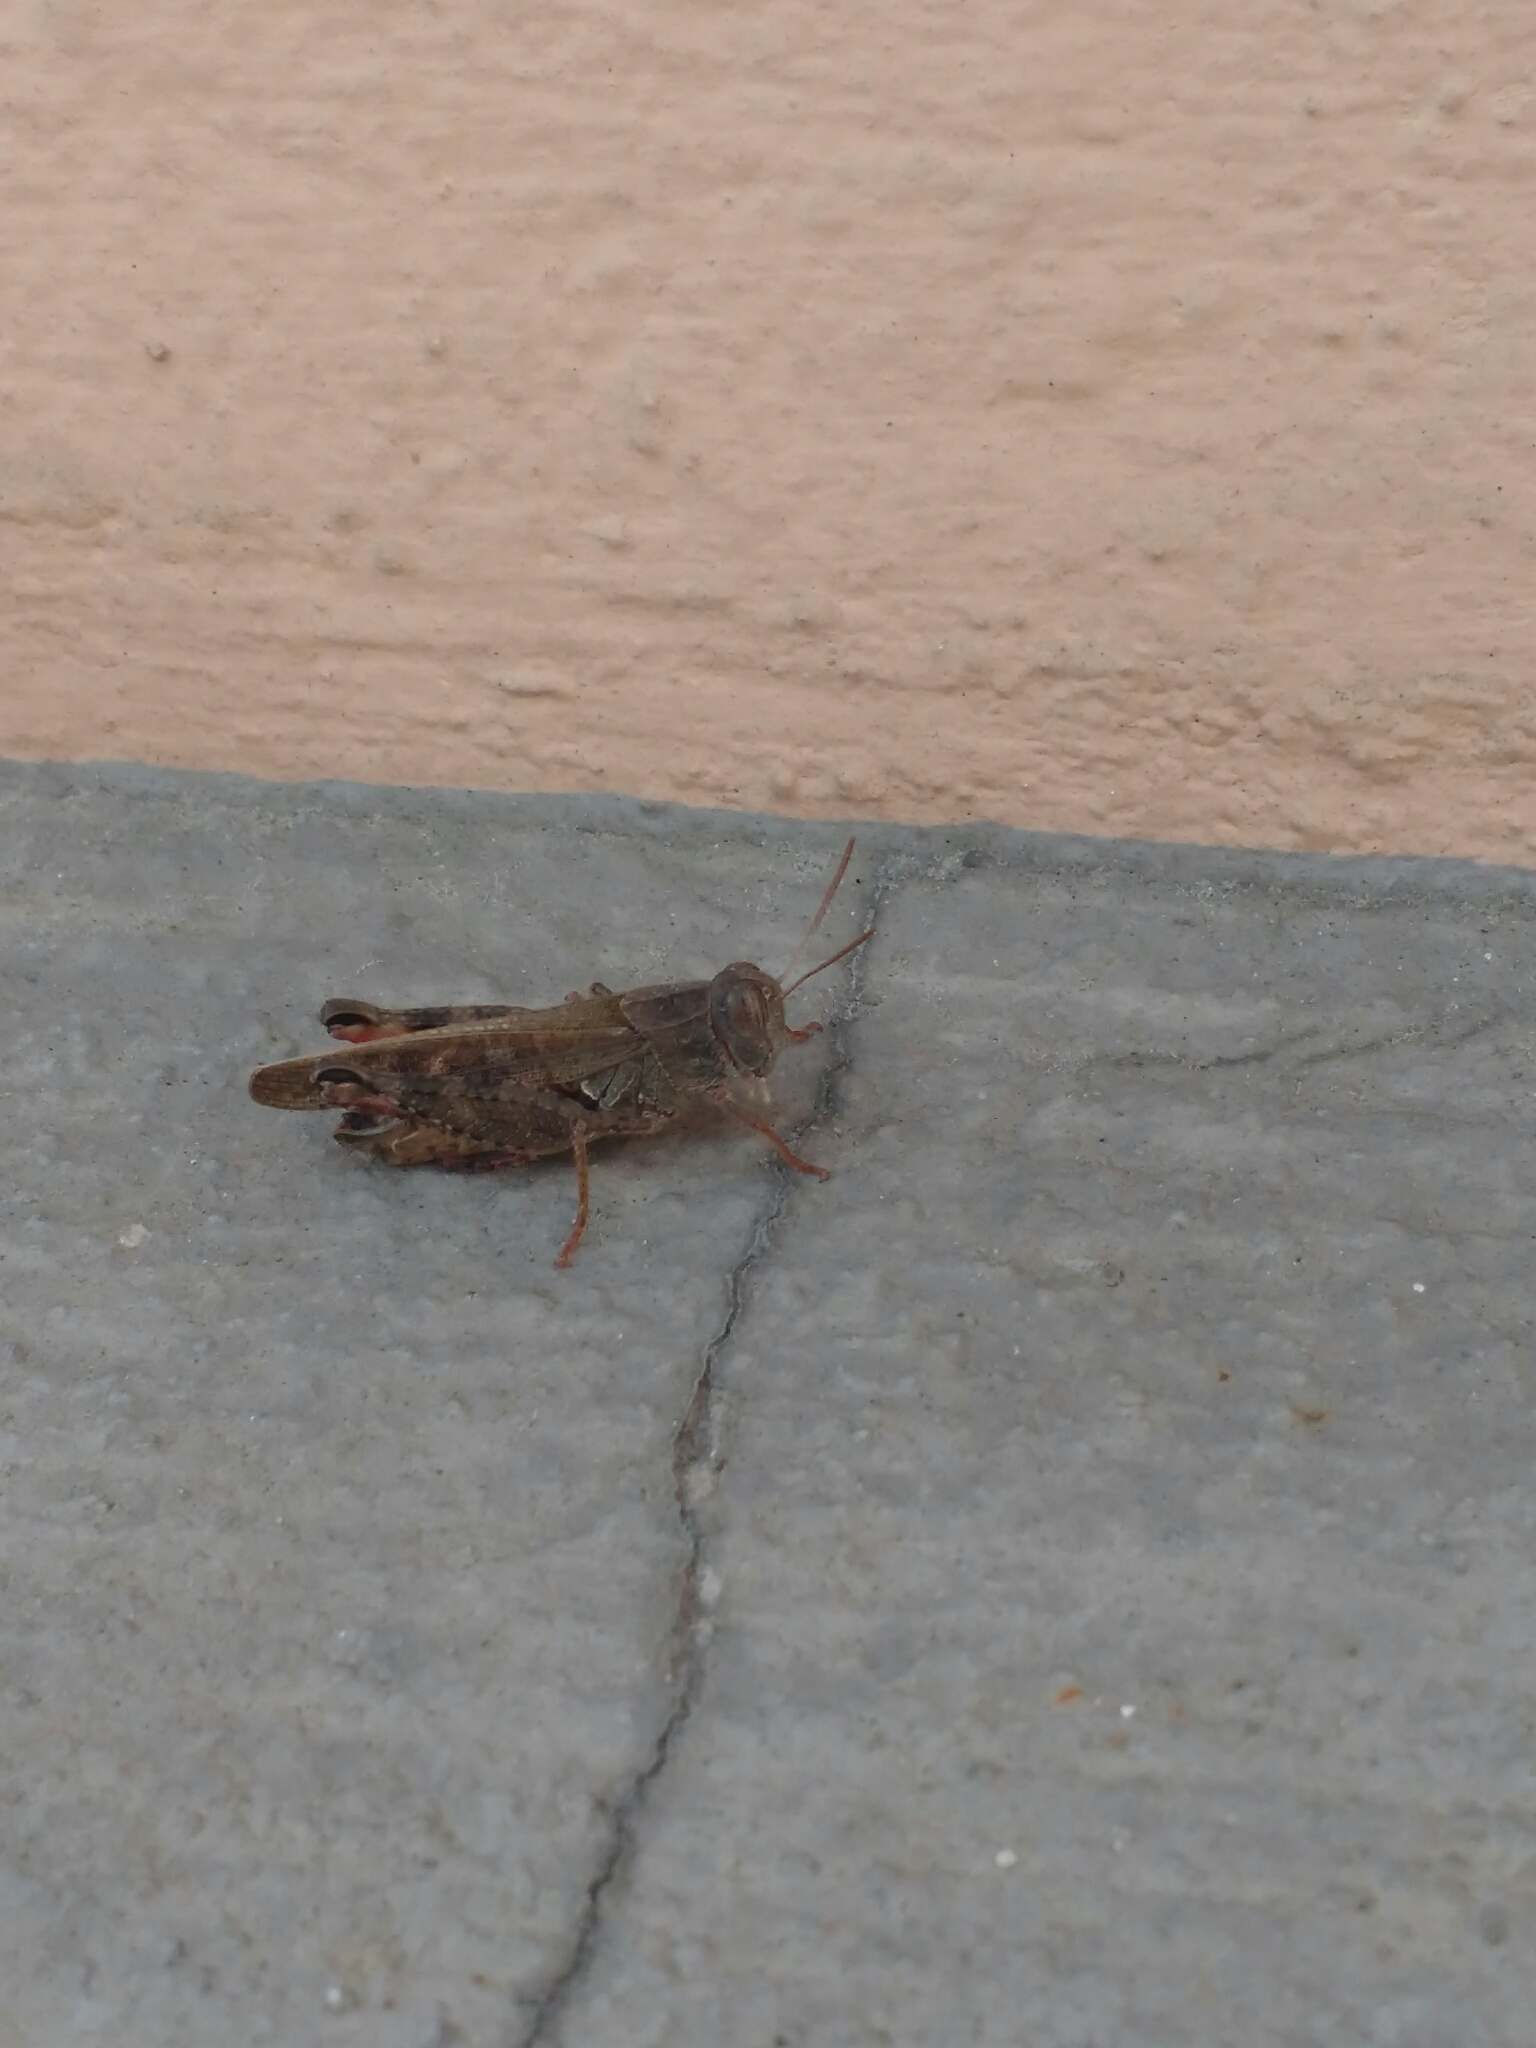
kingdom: Animalia
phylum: Arthropoda
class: Insecta
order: Orthoptera
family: Acrididae
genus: Calliptamus
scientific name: Calliptamus italicus
